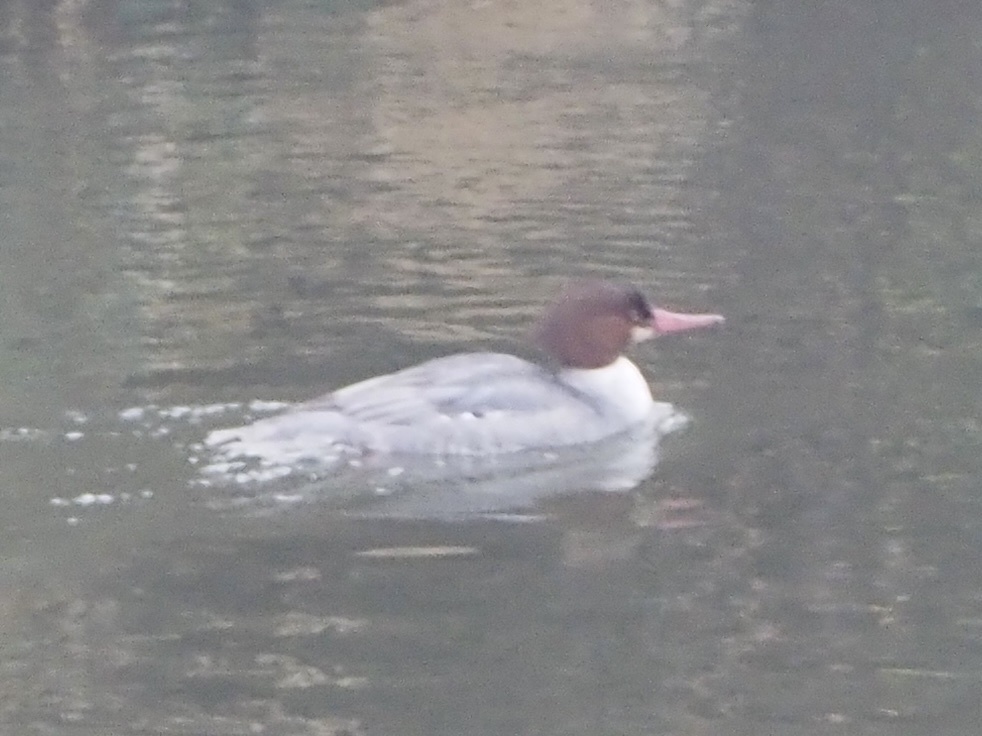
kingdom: Animalia
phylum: Chordata
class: Aves
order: Anseriformes
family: Anatidae
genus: Mergus
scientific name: Mergus merganser
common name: Common merganser
